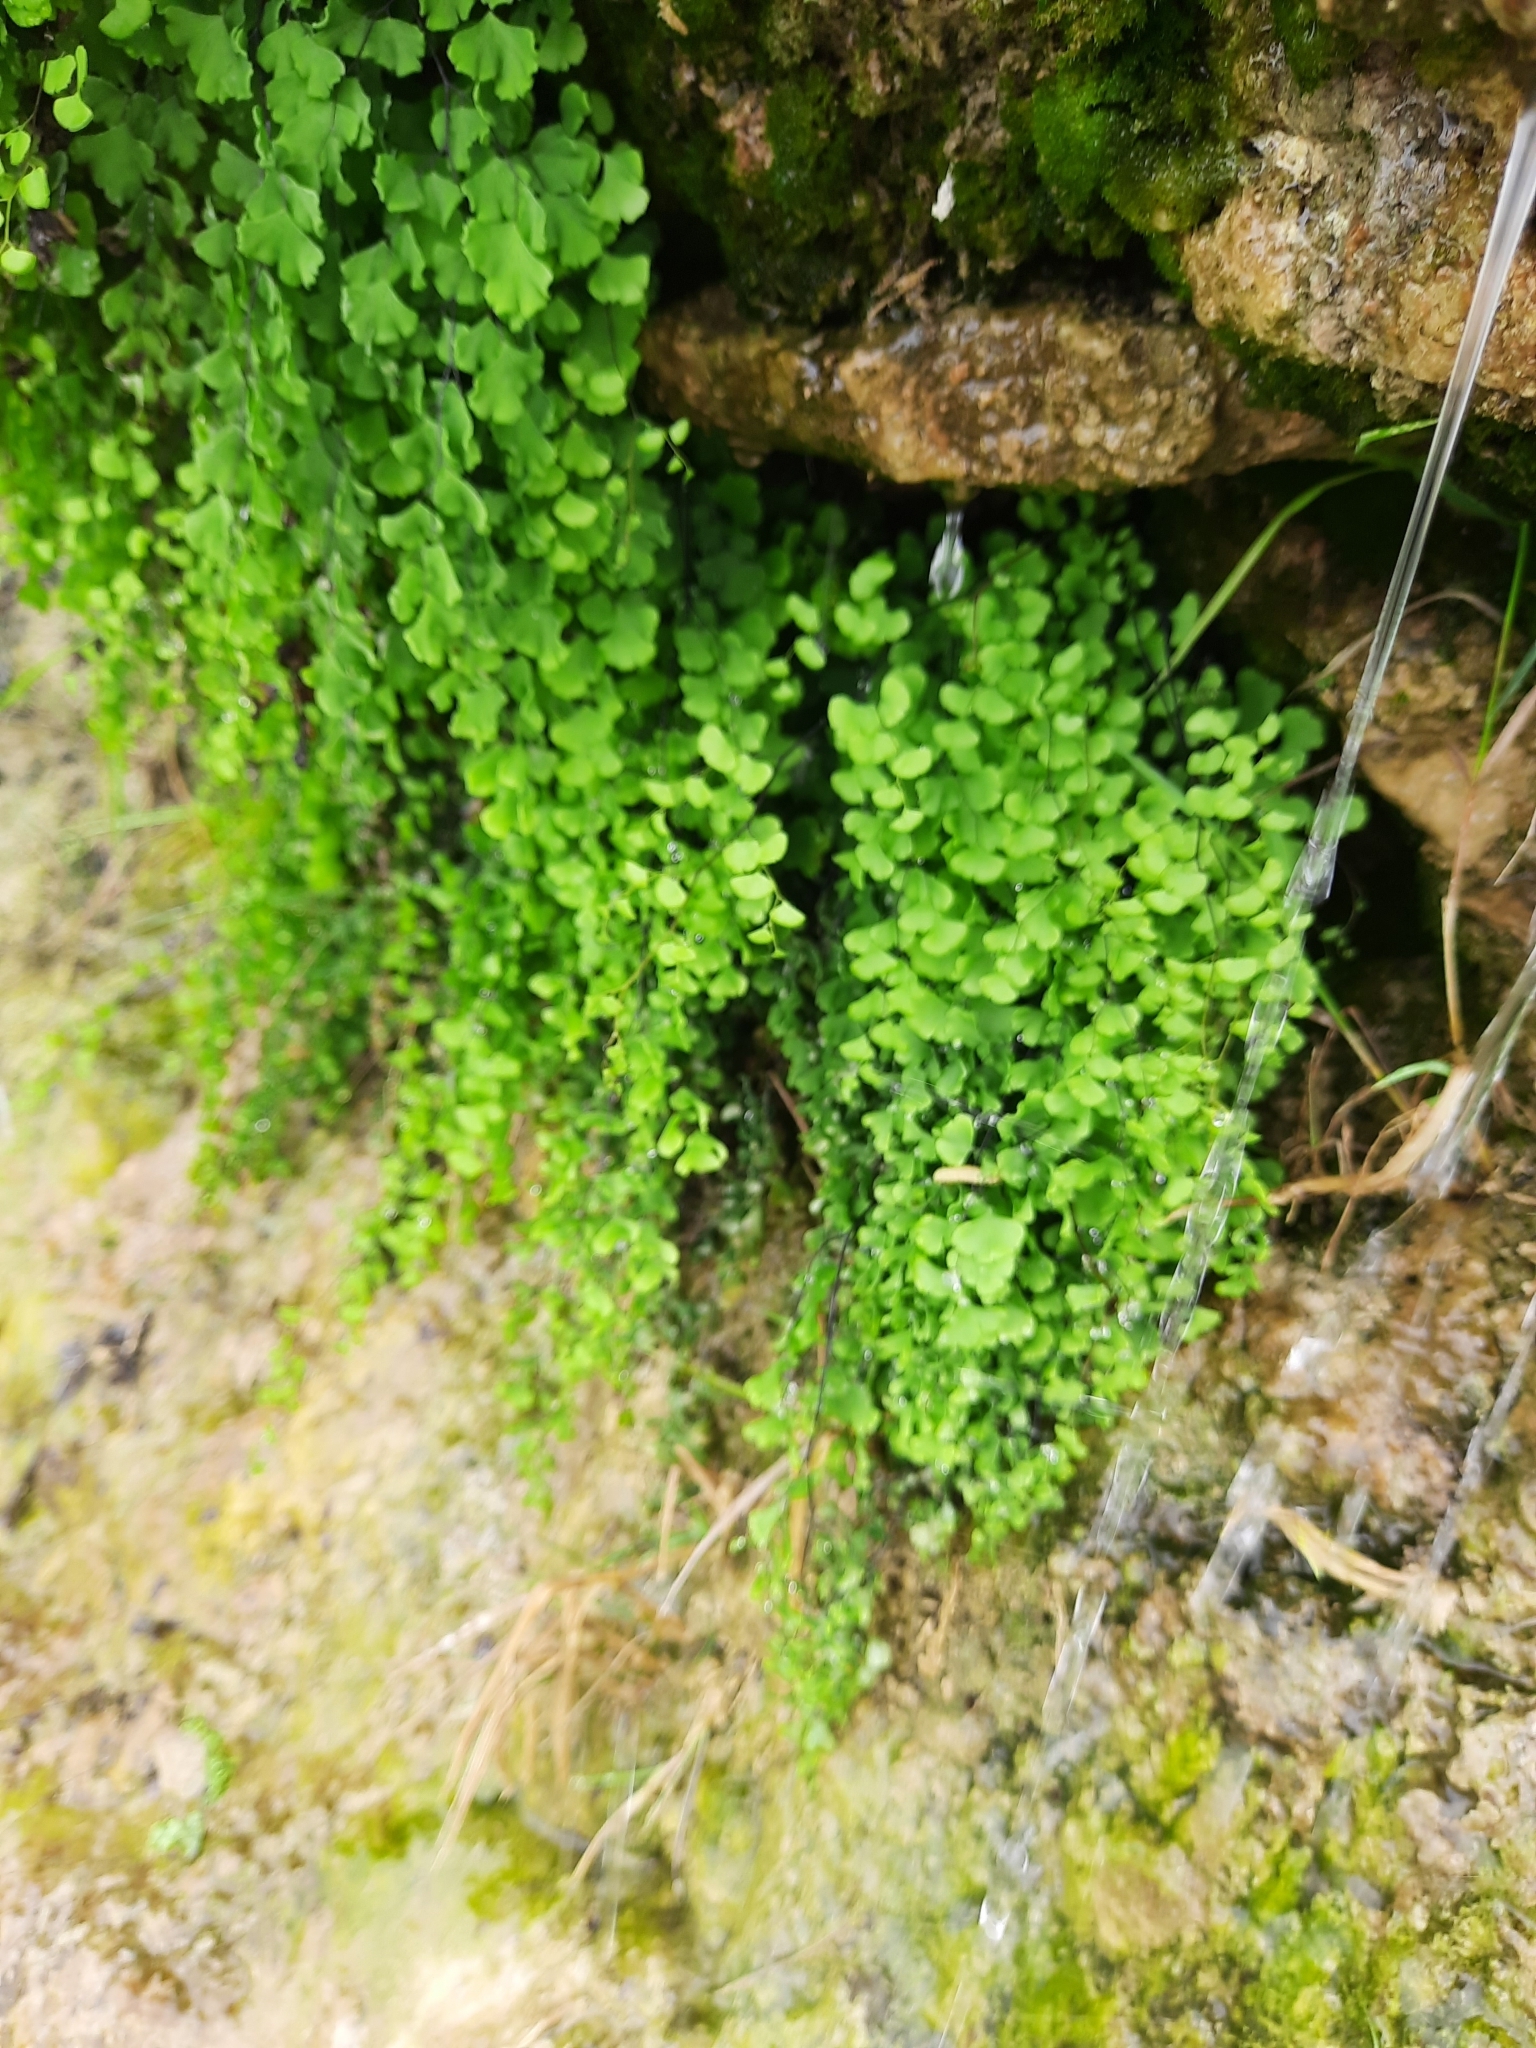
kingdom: Plantae
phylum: Tracheophyta
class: Polypodiopsida
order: Polypodiales
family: Pteridaceae
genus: Adiantum
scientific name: Adiantum capillus-veneris
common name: Maidenhair fern
